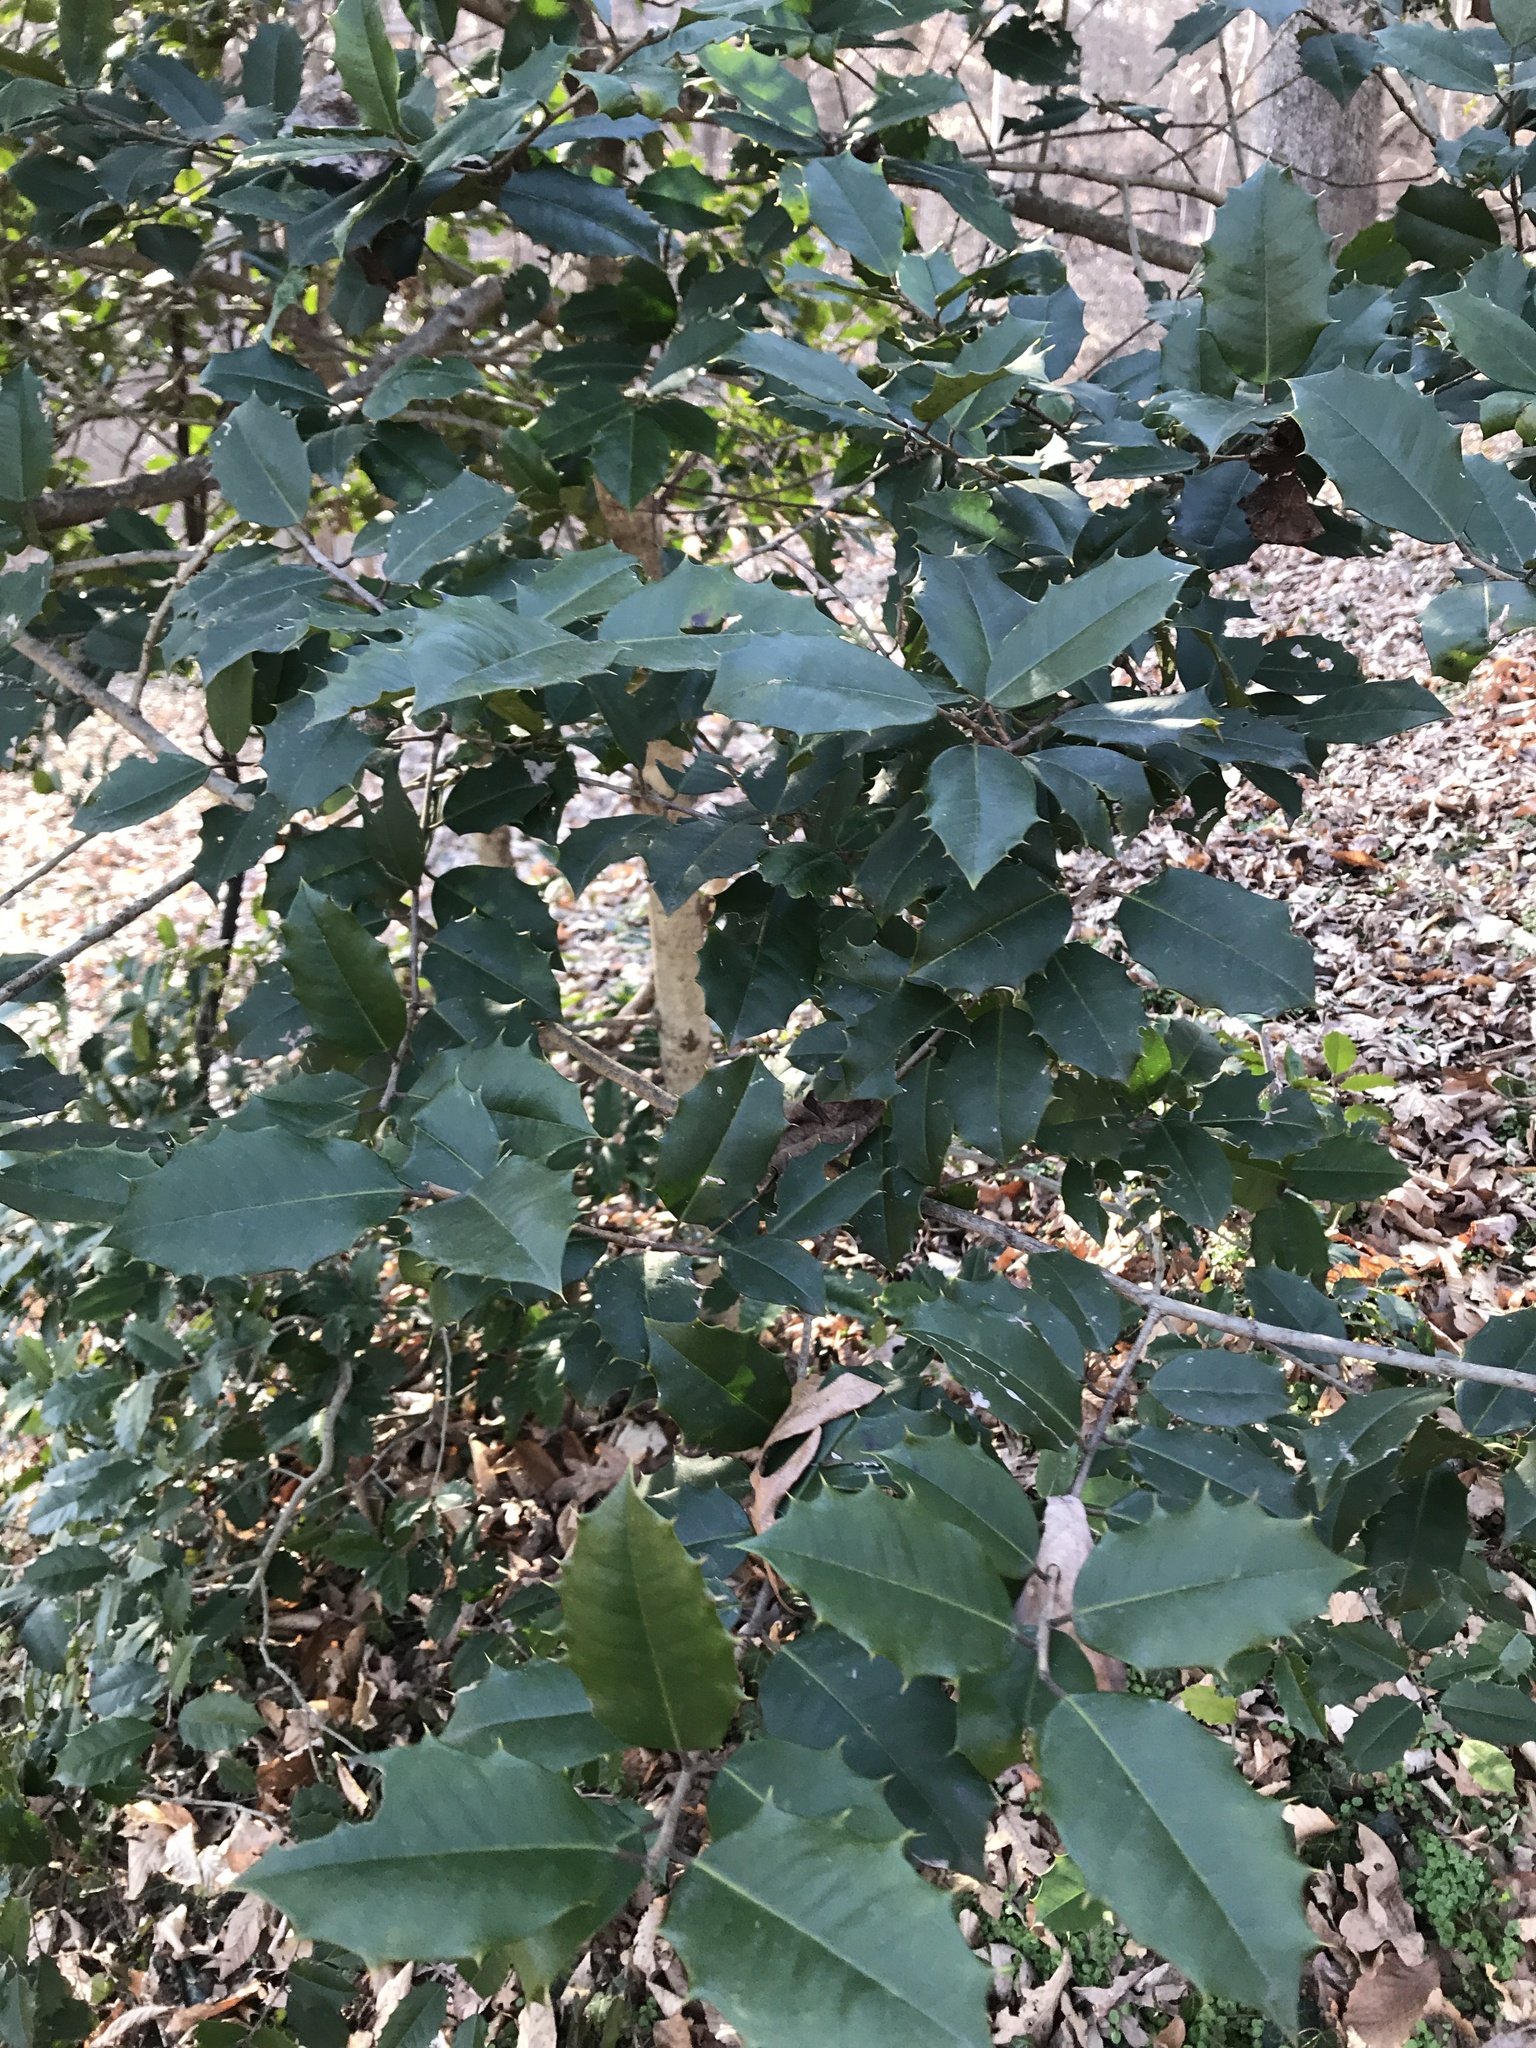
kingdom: Plantae
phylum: Tracheophyta
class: Magnoliopsida
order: Aquifoliales
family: Aquifoliaceae
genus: Ilex
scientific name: Ilex opaca
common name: American holly
